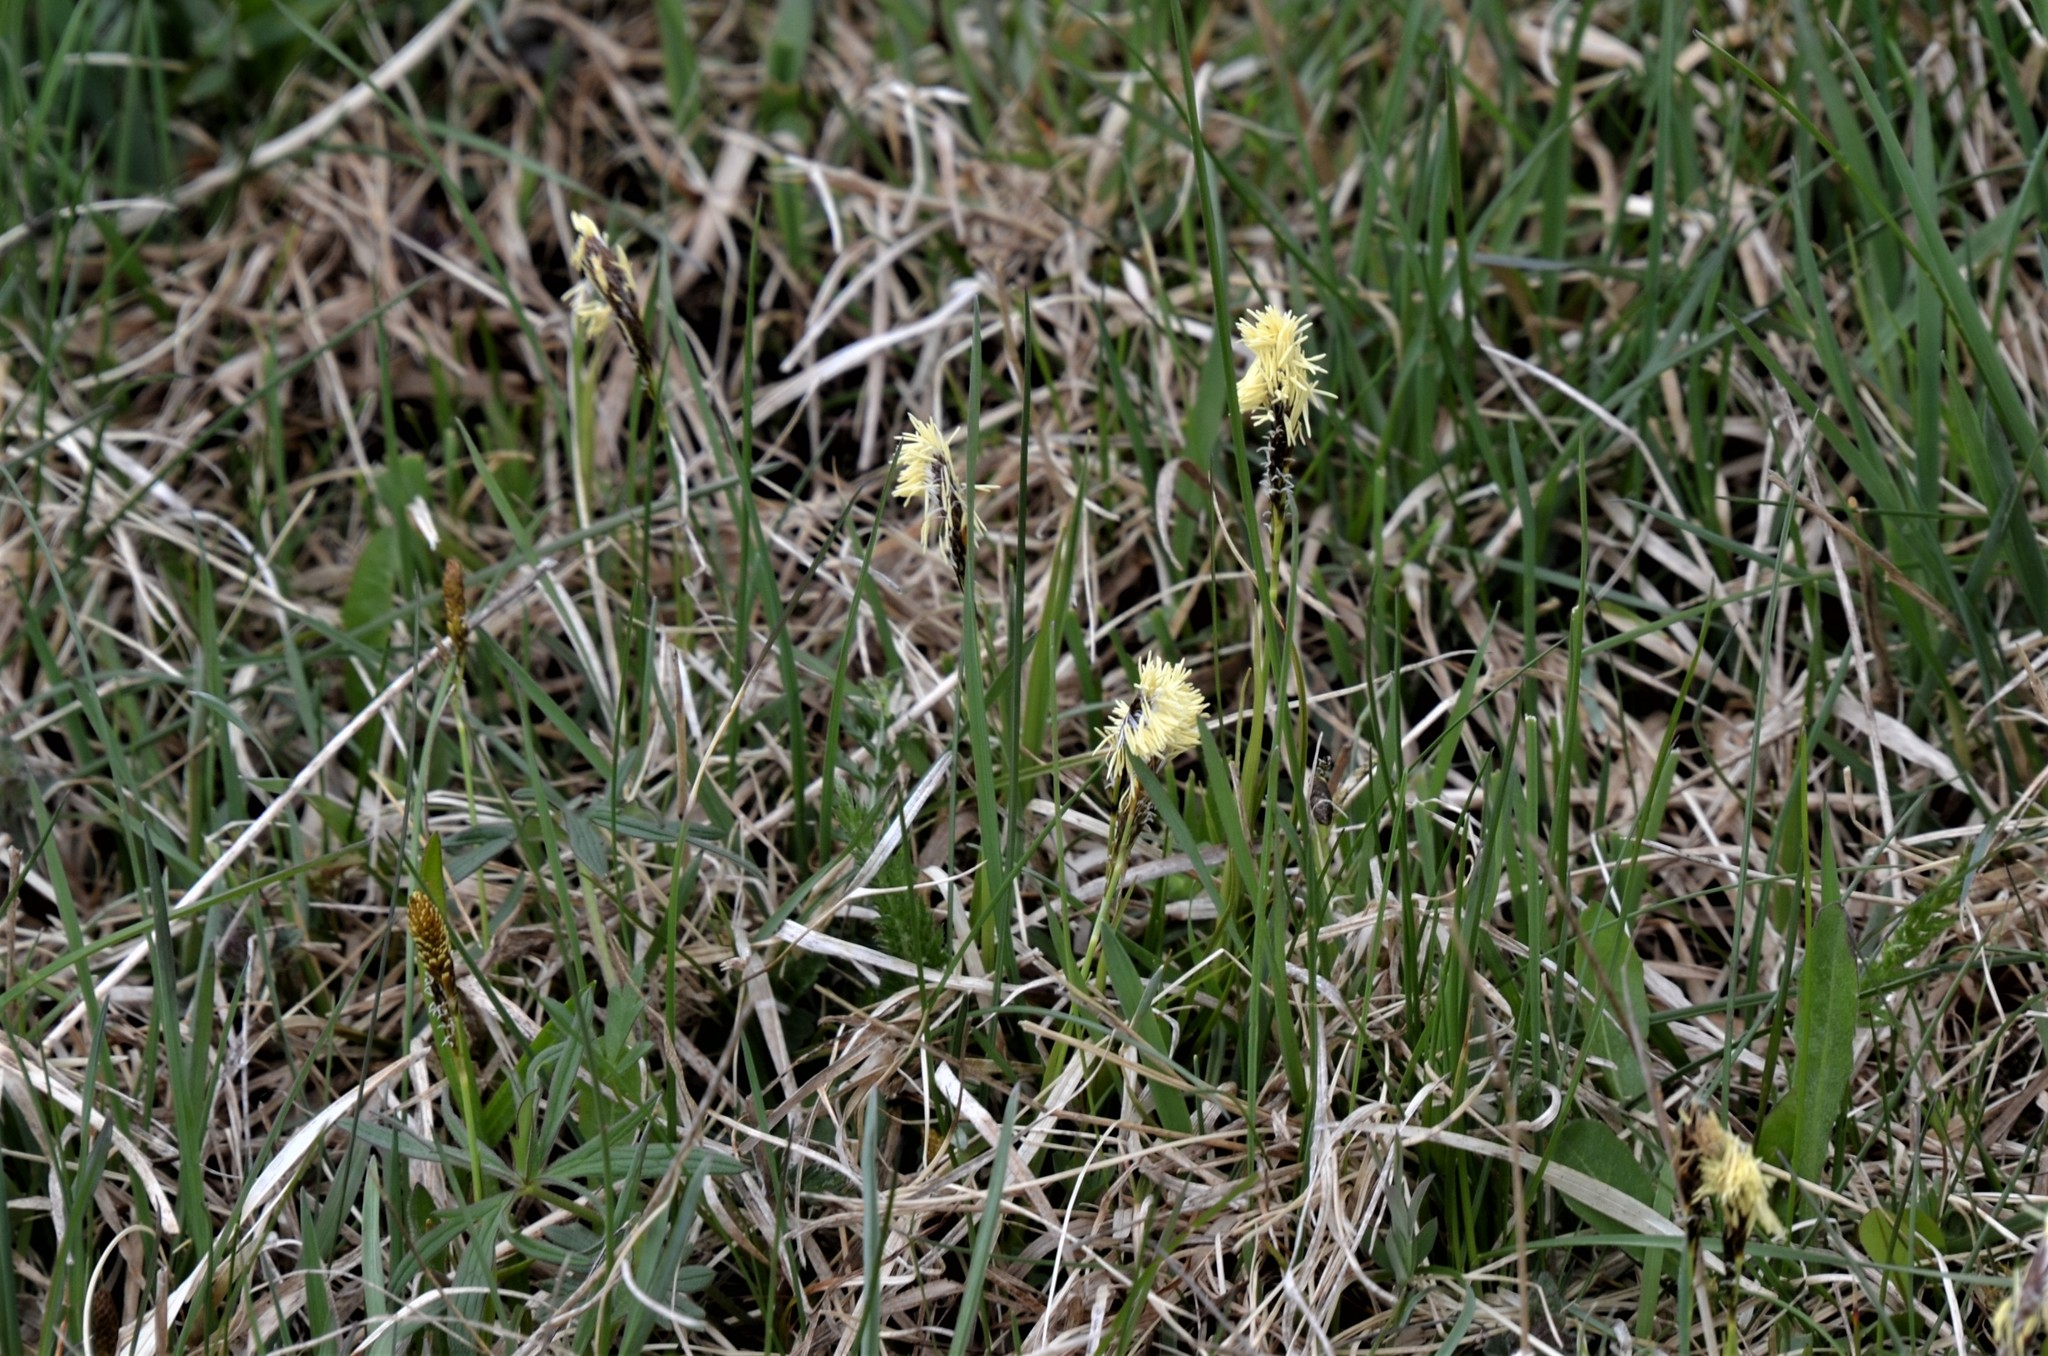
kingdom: Plantae
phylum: Tracheophyta
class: Liliopsida
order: Poales
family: Cyperaceae
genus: Carex
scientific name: Carex caryophyllea
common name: Spring sedge
